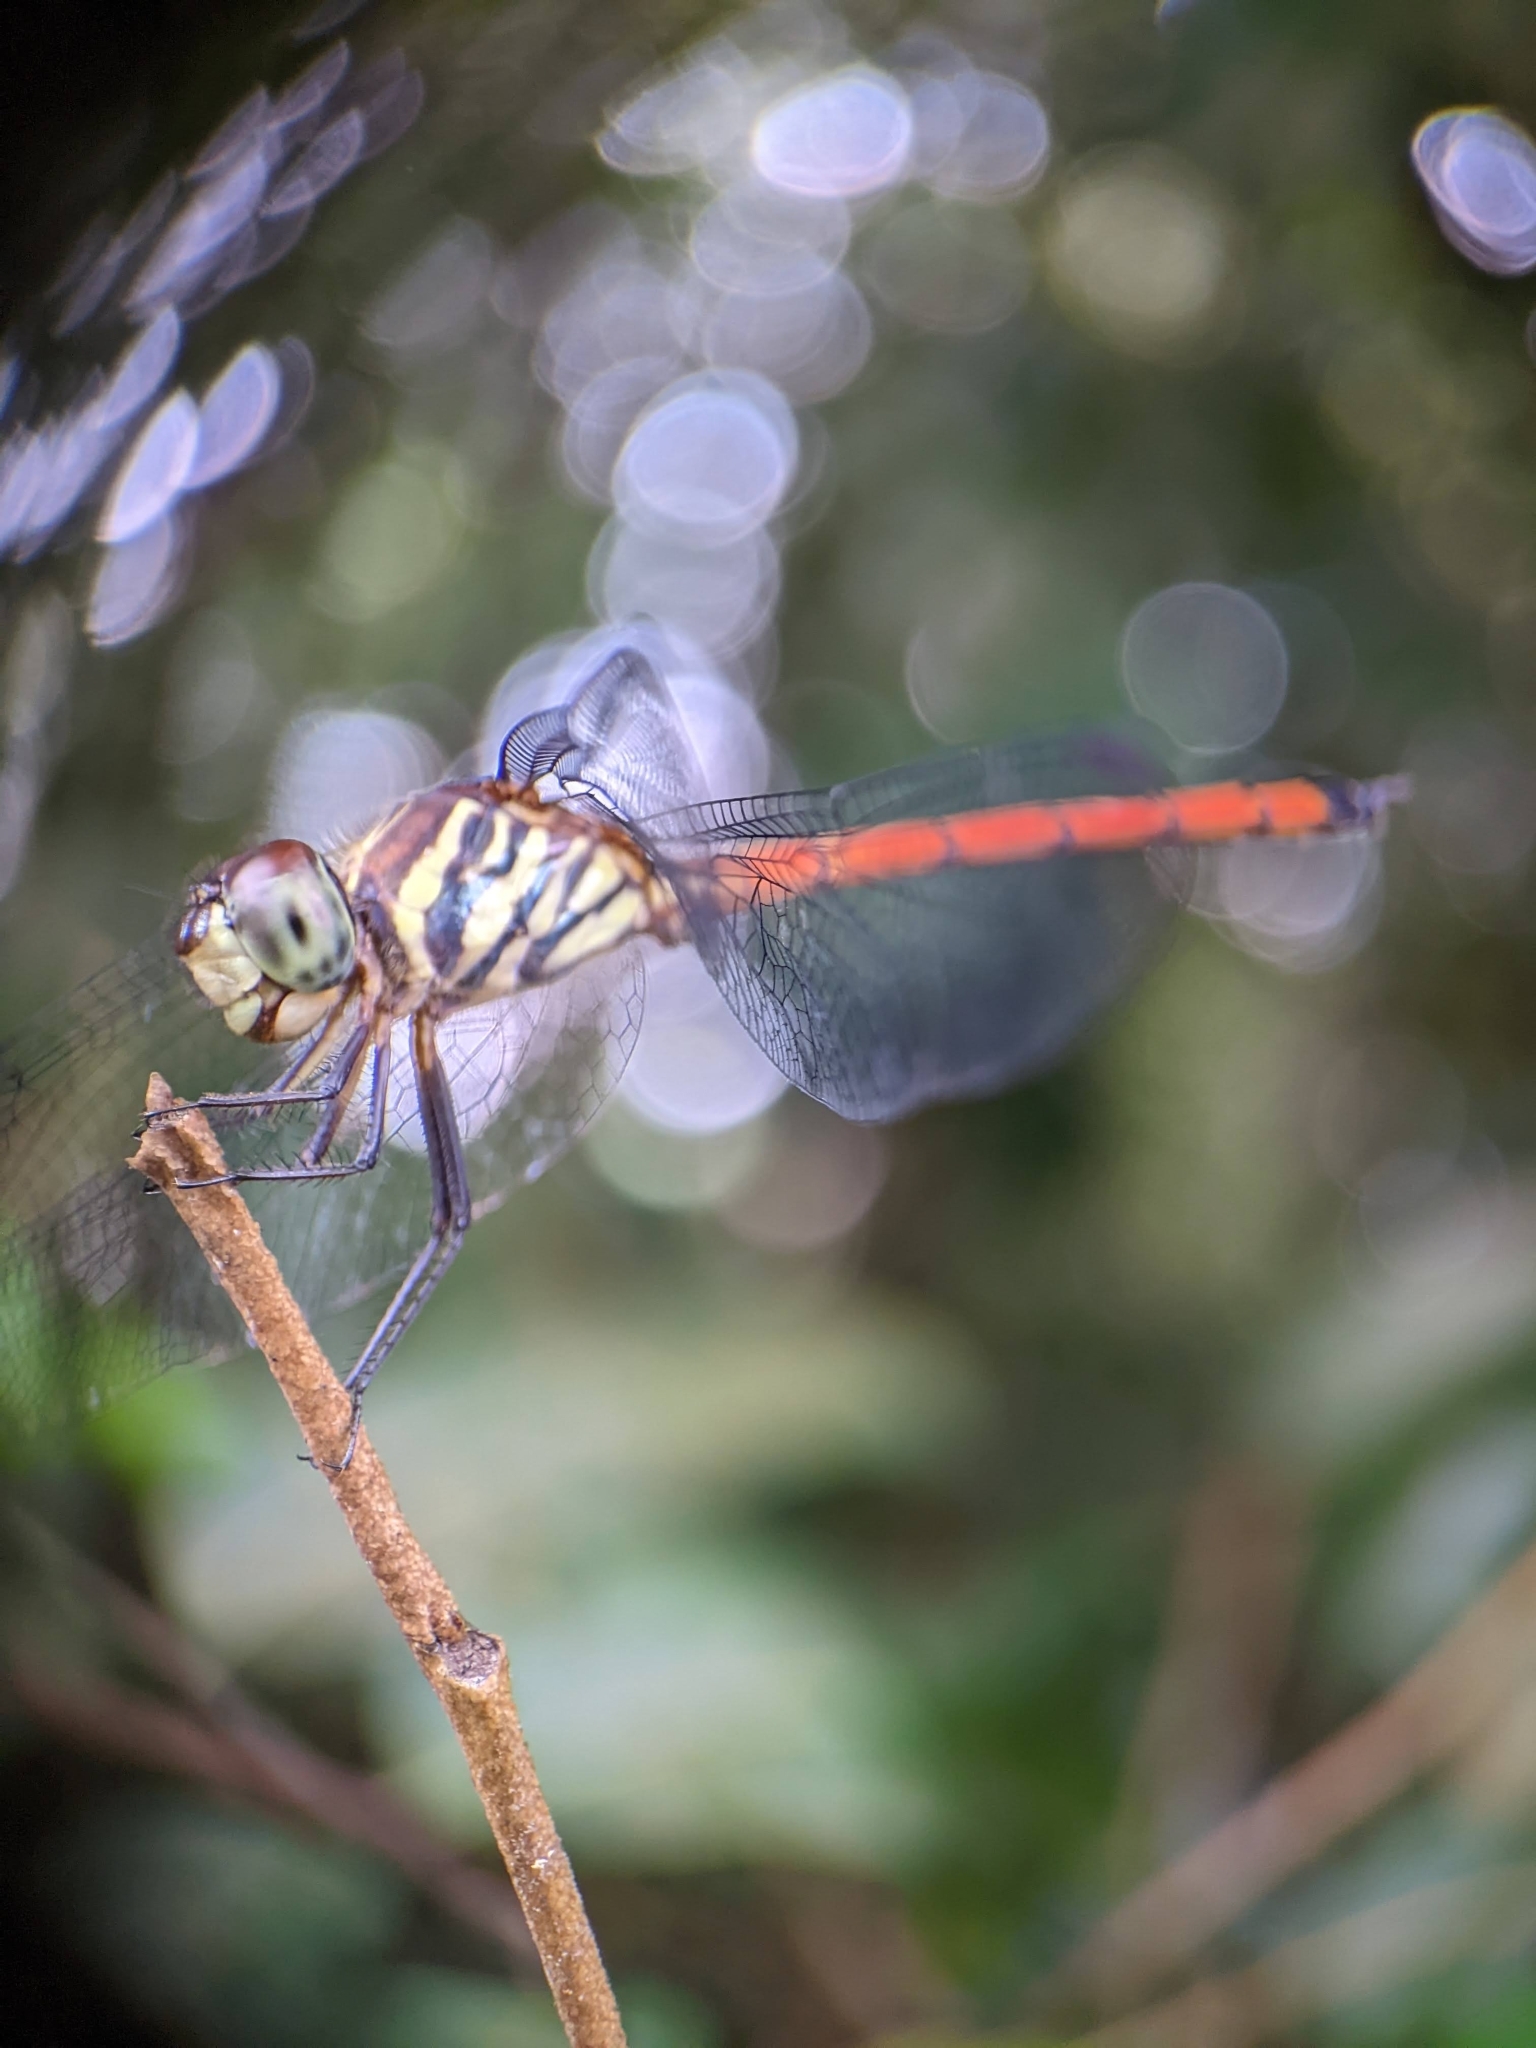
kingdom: Animalia
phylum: Arthropoda
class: Insecta
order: Odonata
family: Libellulidae
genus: Lathrecista
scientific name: Lathrecista asiatica
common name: Scarlet grenadier
